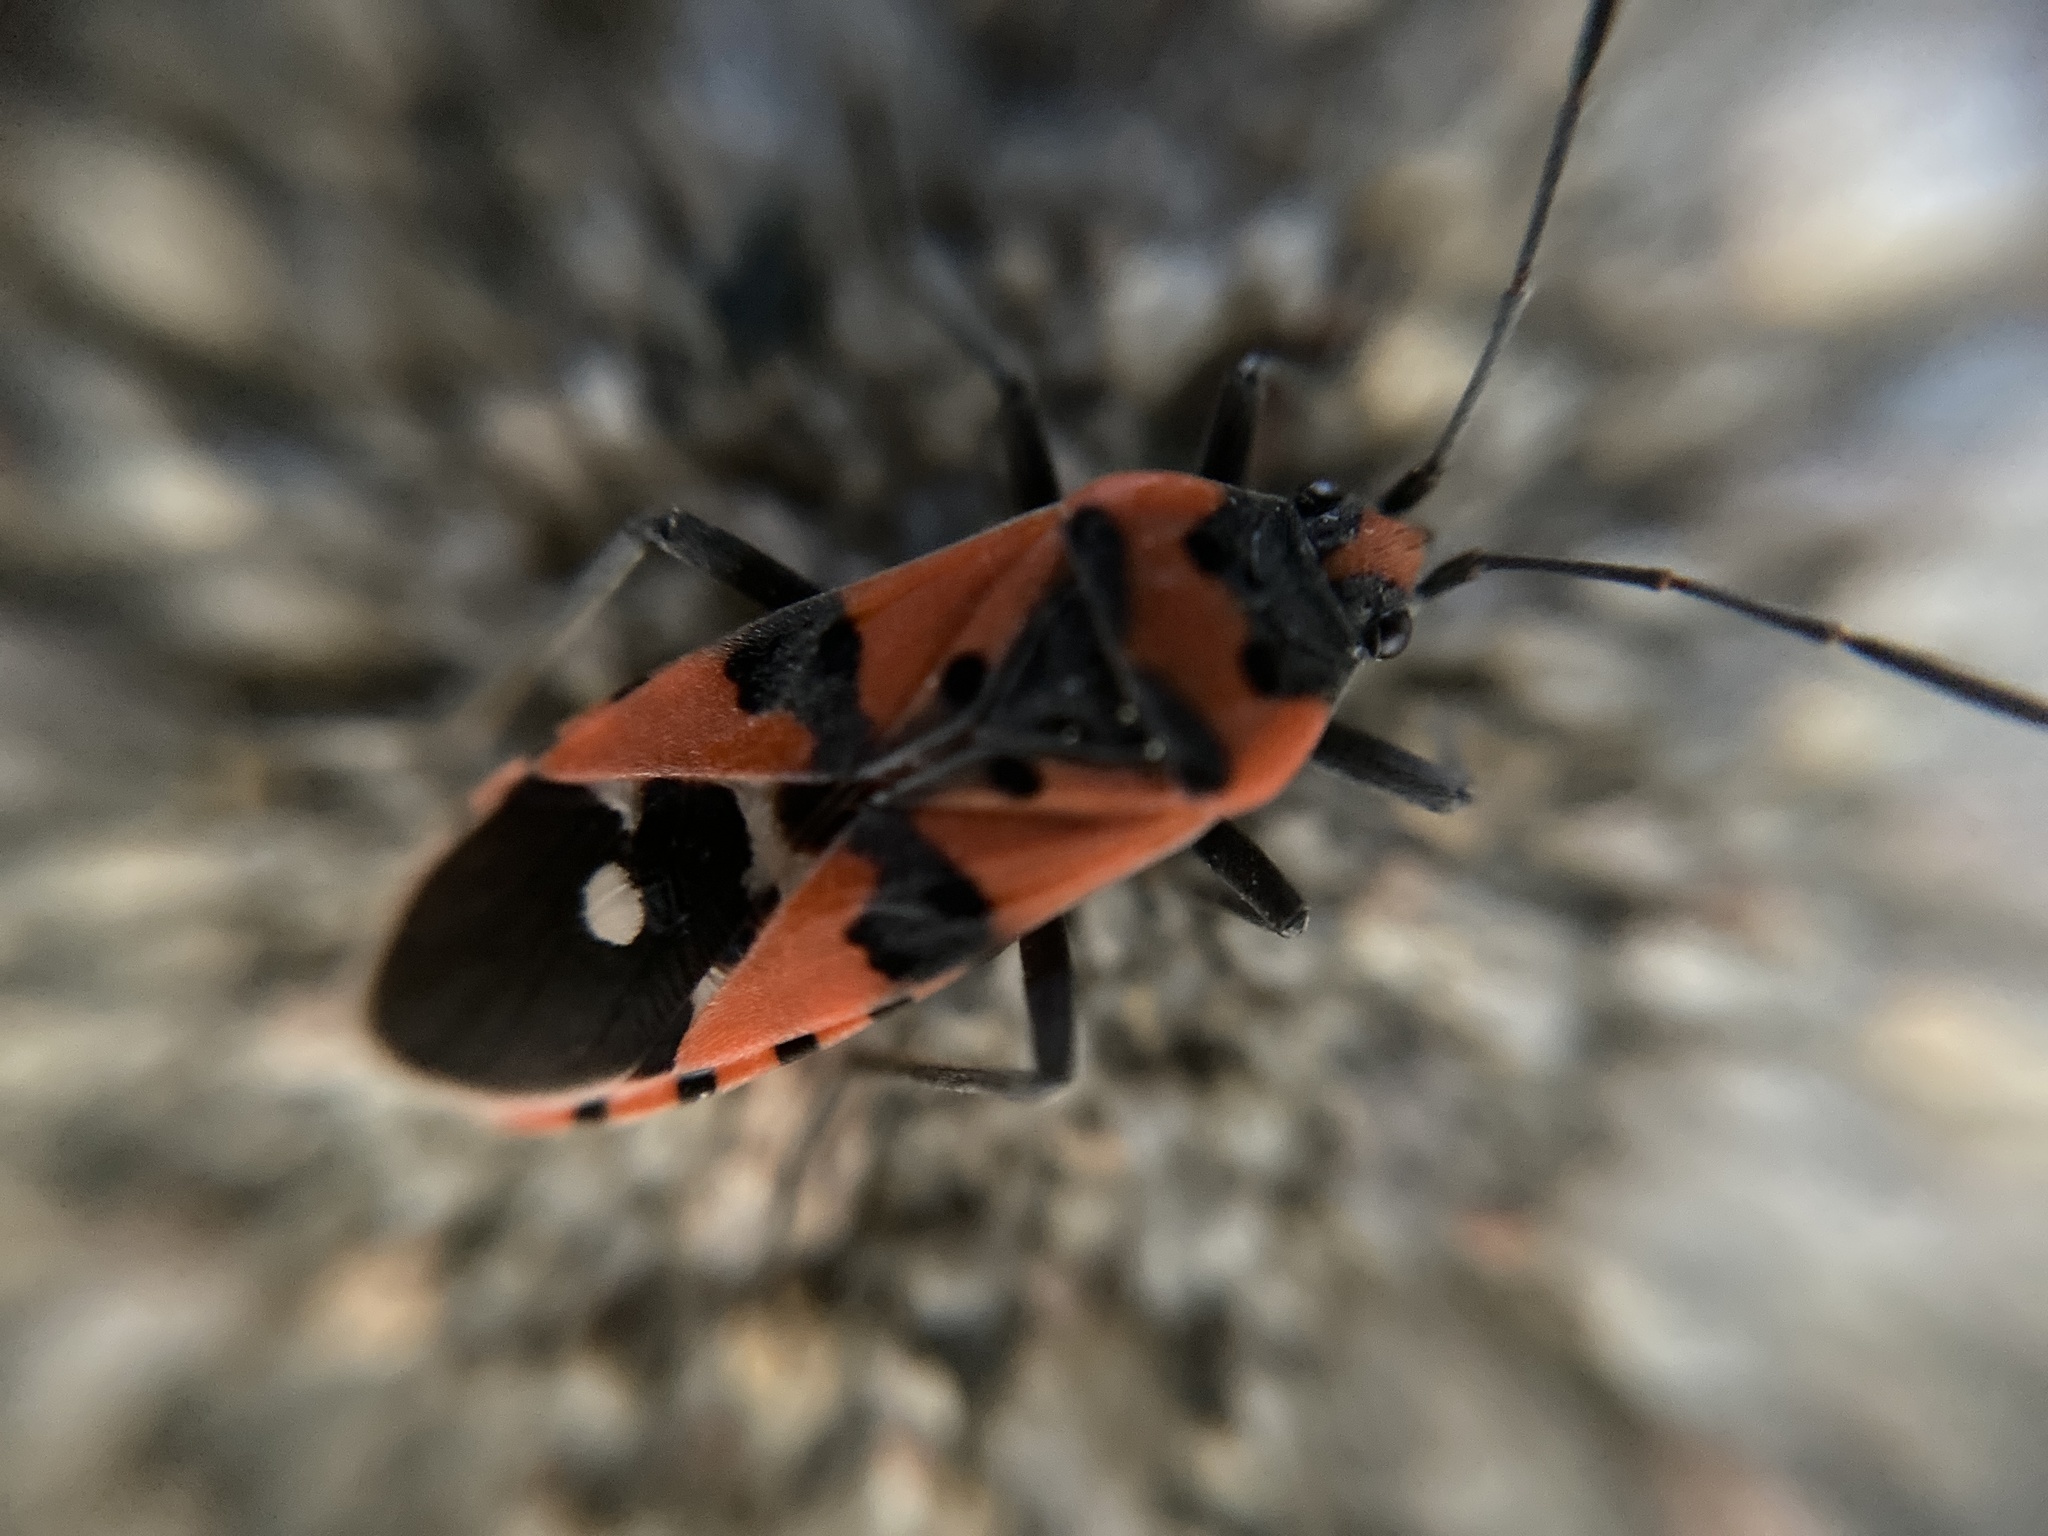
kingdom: Animalia
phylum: Arthropoda
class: Insecta
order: Hemiptera
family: Lygaeidae
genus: Lygaeus
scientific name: Lygaeus equestris
